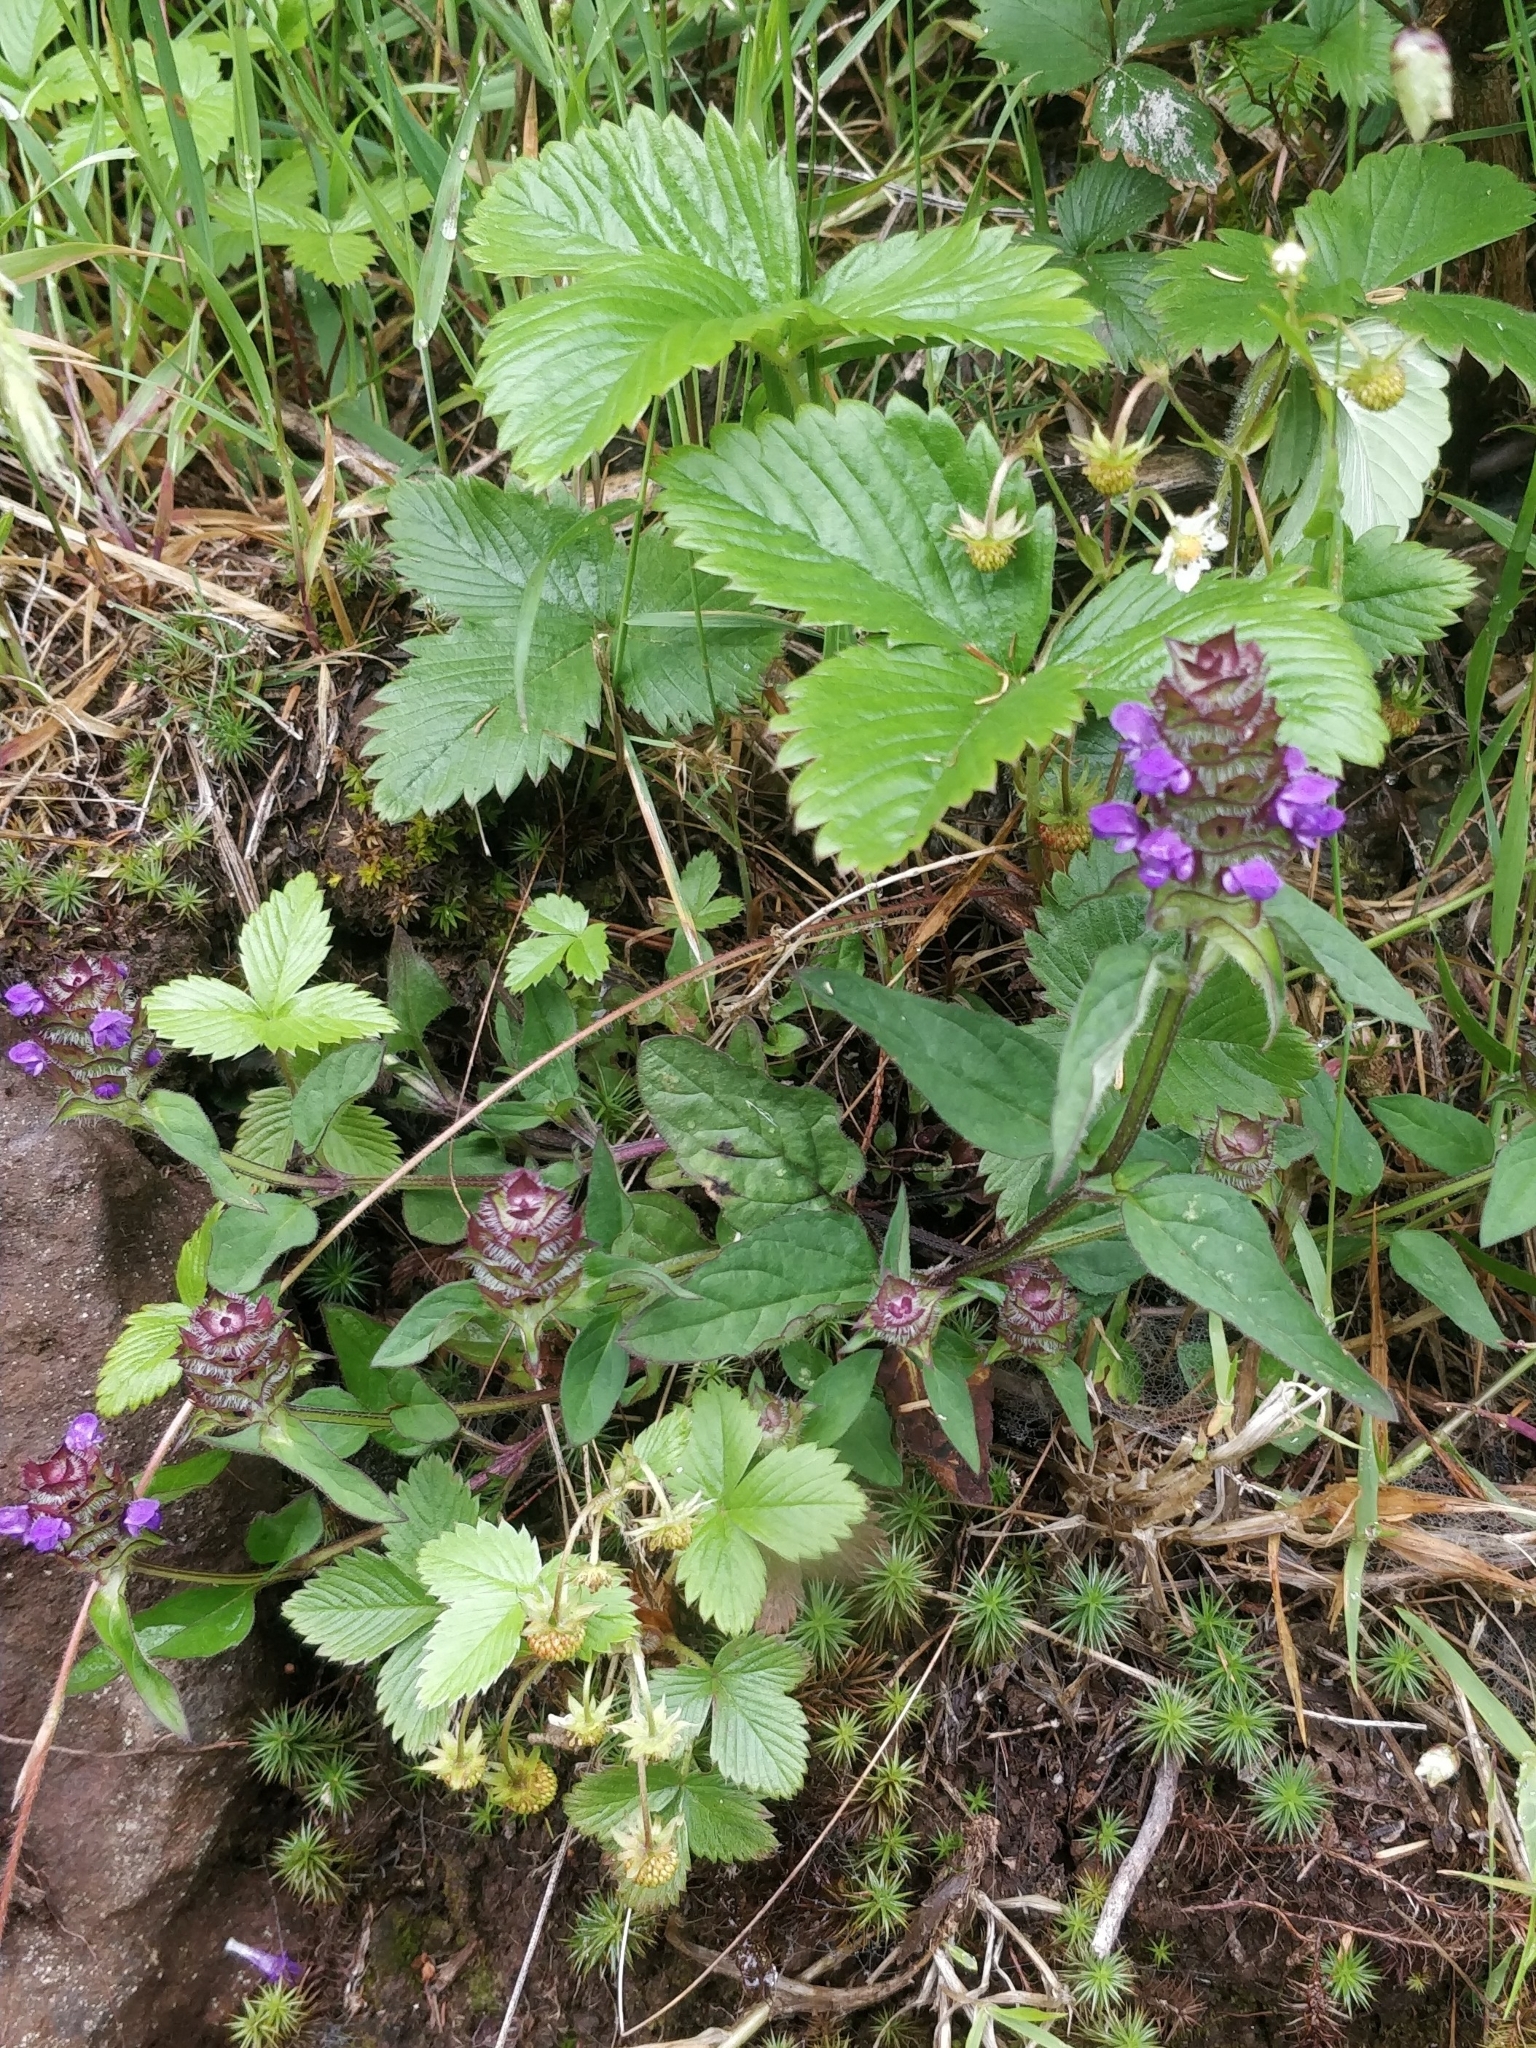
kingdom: Plantae
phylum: Tracheophyta
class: Magnoliopsida
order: Lamiales
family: Lamiaceae
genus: Prunella
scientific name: Prunella vulgaris
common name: Heal-all
